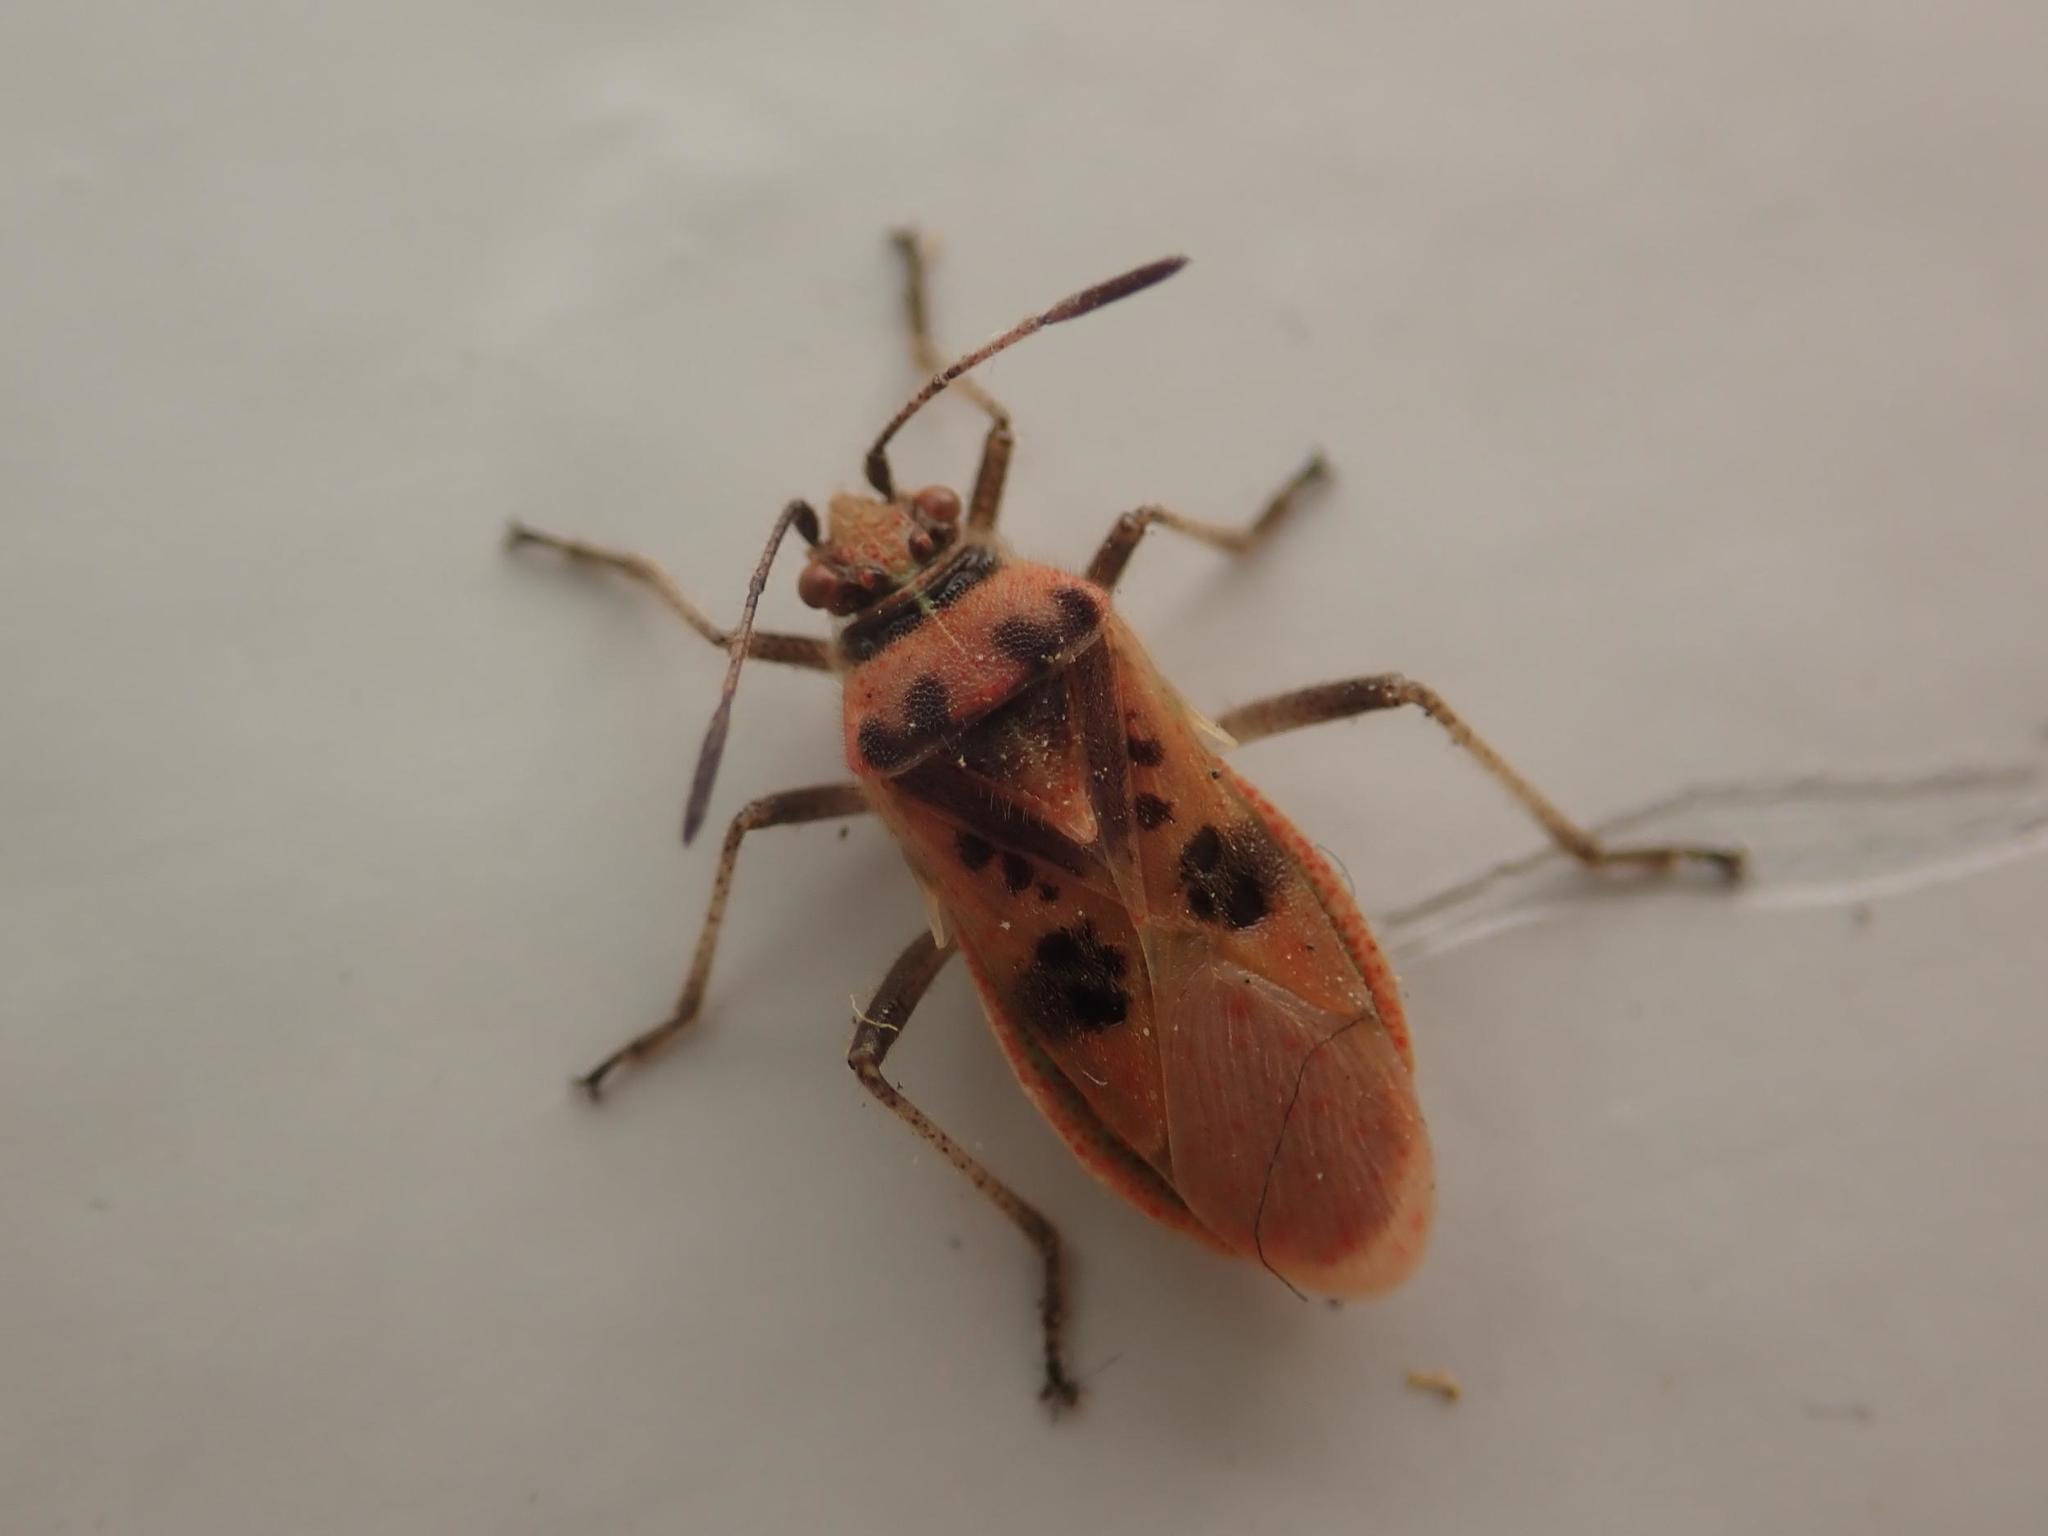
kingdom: Animalia
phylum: Arthropoda
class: Insecta
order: Hemiptera
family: Rhopalidae
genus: Corizus
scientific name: Corizus hyoscyami
